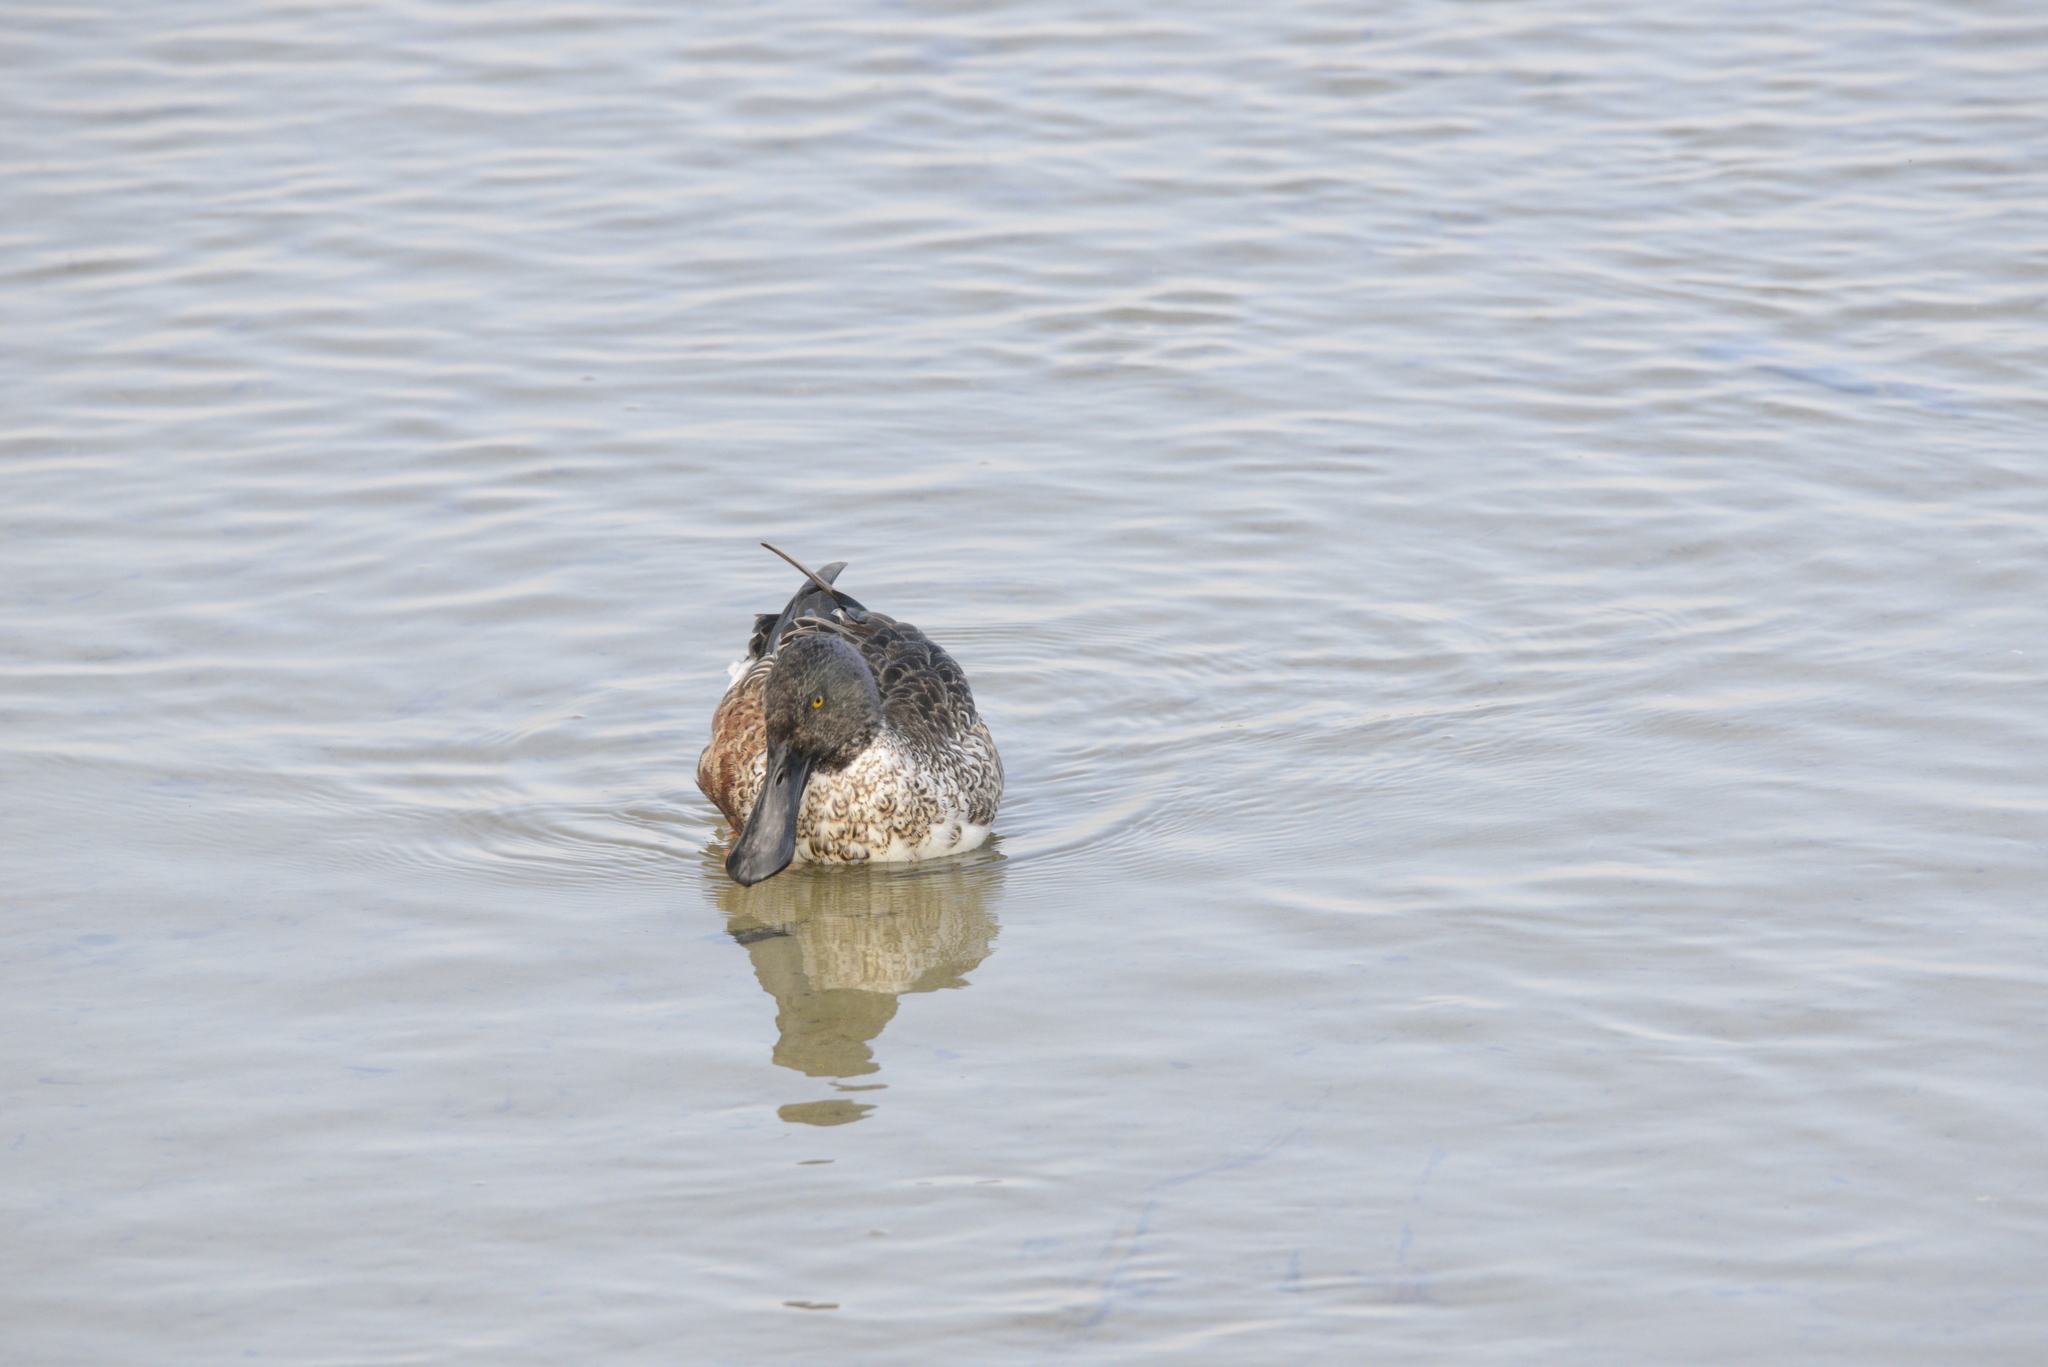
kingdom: Animalia
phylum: Chordata
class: Aves
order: Anseriformes
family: Anatidae
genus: Spatula
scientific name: Spatula clypeata
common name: Northern shoveler
